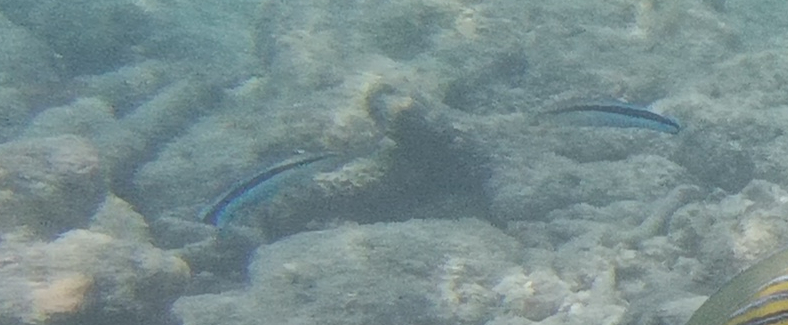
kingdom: Animalia
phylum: Chordata
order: Perciformes
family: Labridae
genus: Labroides
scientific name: Labroides dimidiatus
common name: Blue diesel wrasse
